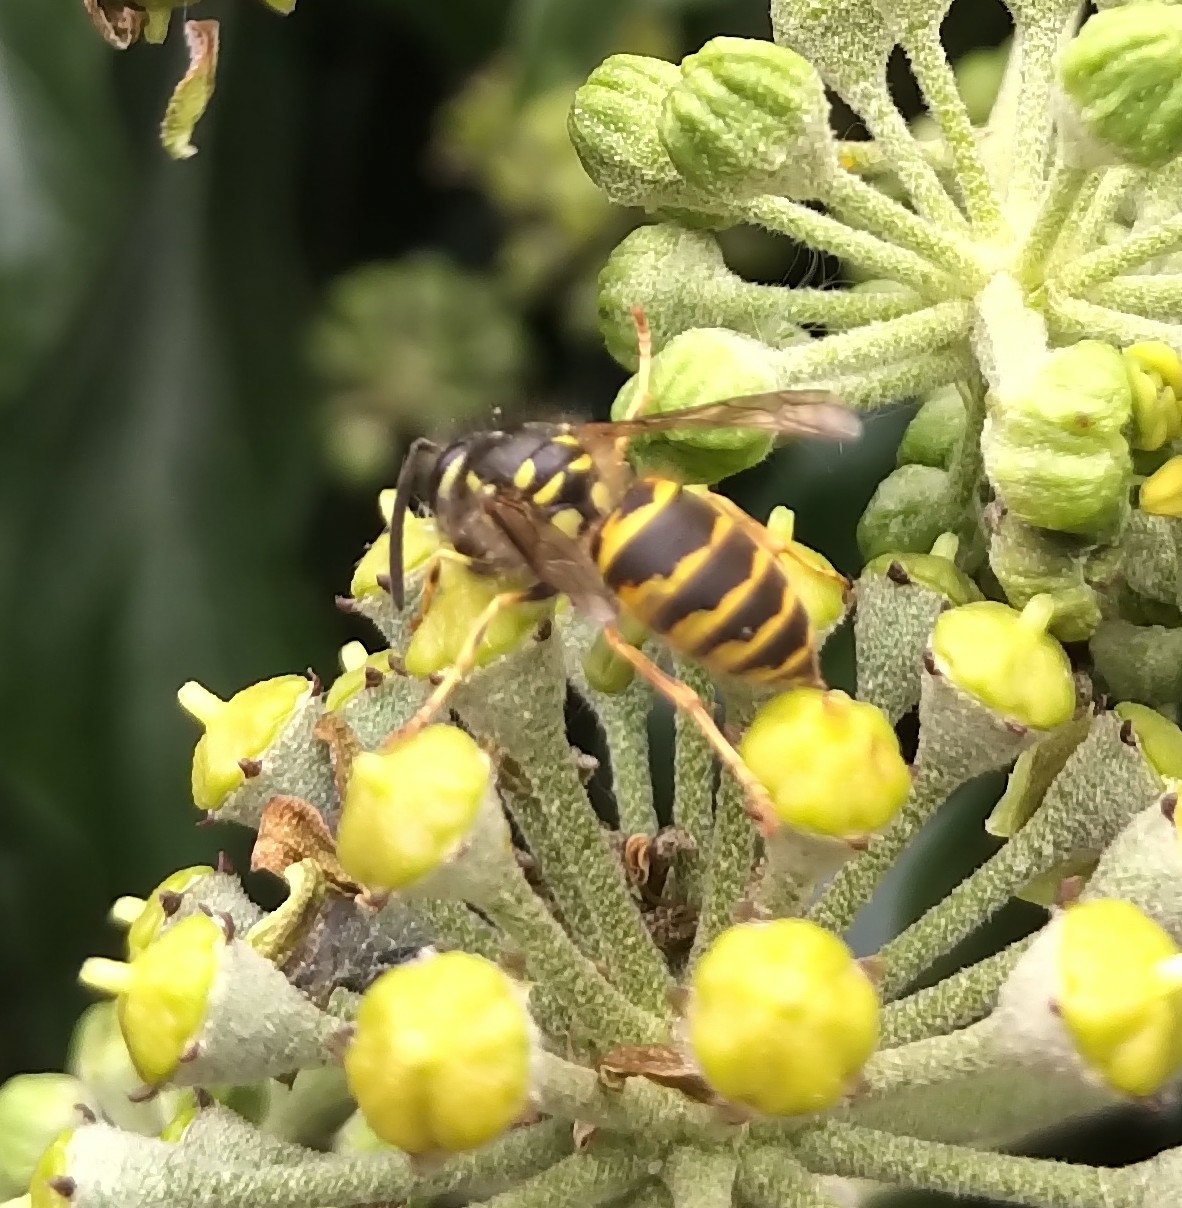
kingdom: Animalia
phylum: Arthropoda
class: Insecta
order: Hymenoptera
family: Vespidae
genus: Vespula
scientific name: Vespula vulgaris
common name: Common wasp
